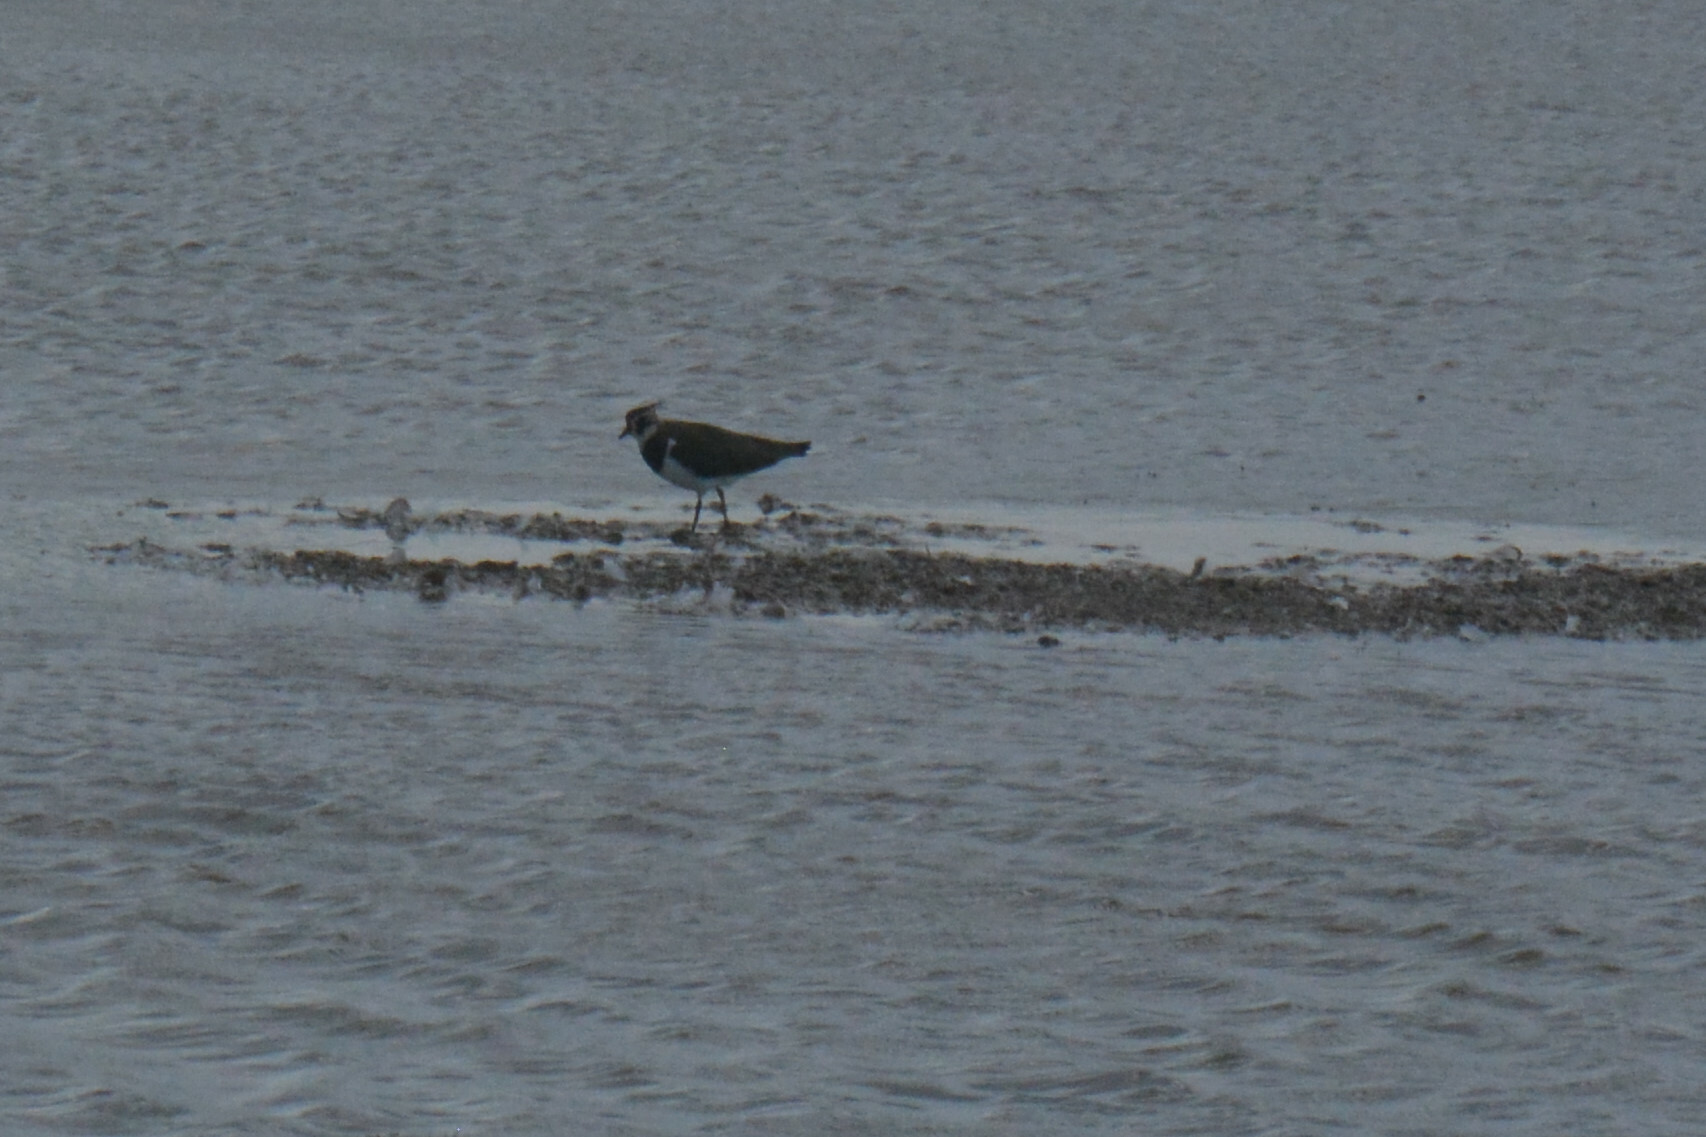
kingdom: Animalia
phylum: Chordata
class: Aves
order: Charadriiformes
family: Charadriidae
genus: Vanellus
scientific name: Vanellus vanellus
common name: Northern lapwing
